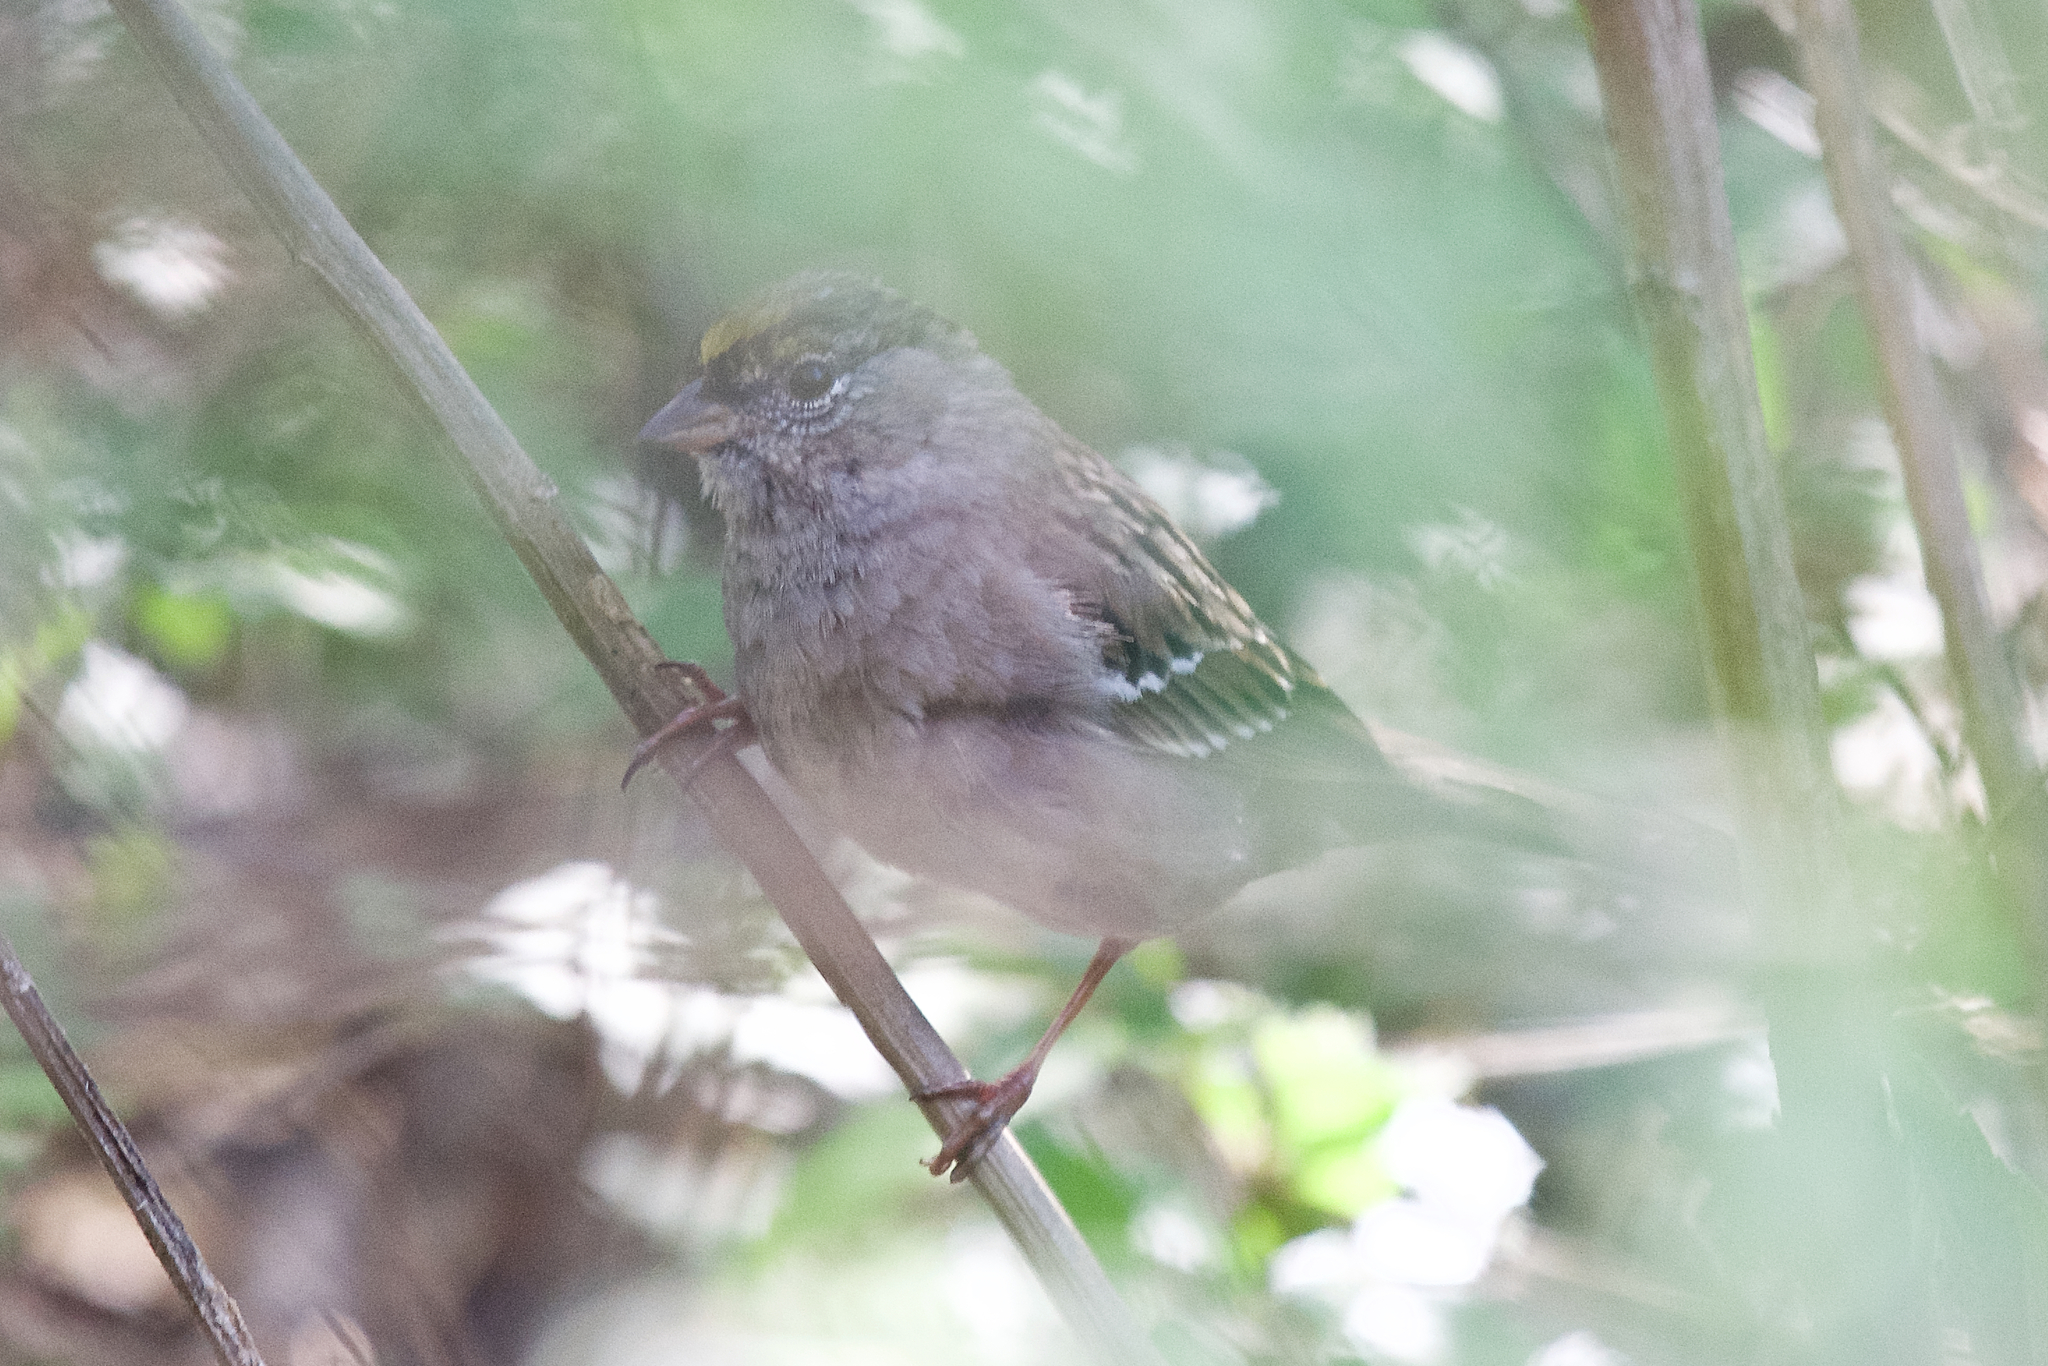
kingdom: Animalia
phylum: Chordata
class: Aves
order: Passeriformes
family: Passerellidae
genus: Zonotrichia
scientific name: Zonotrichia atricapilla
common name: Golden-crowned sparrow
